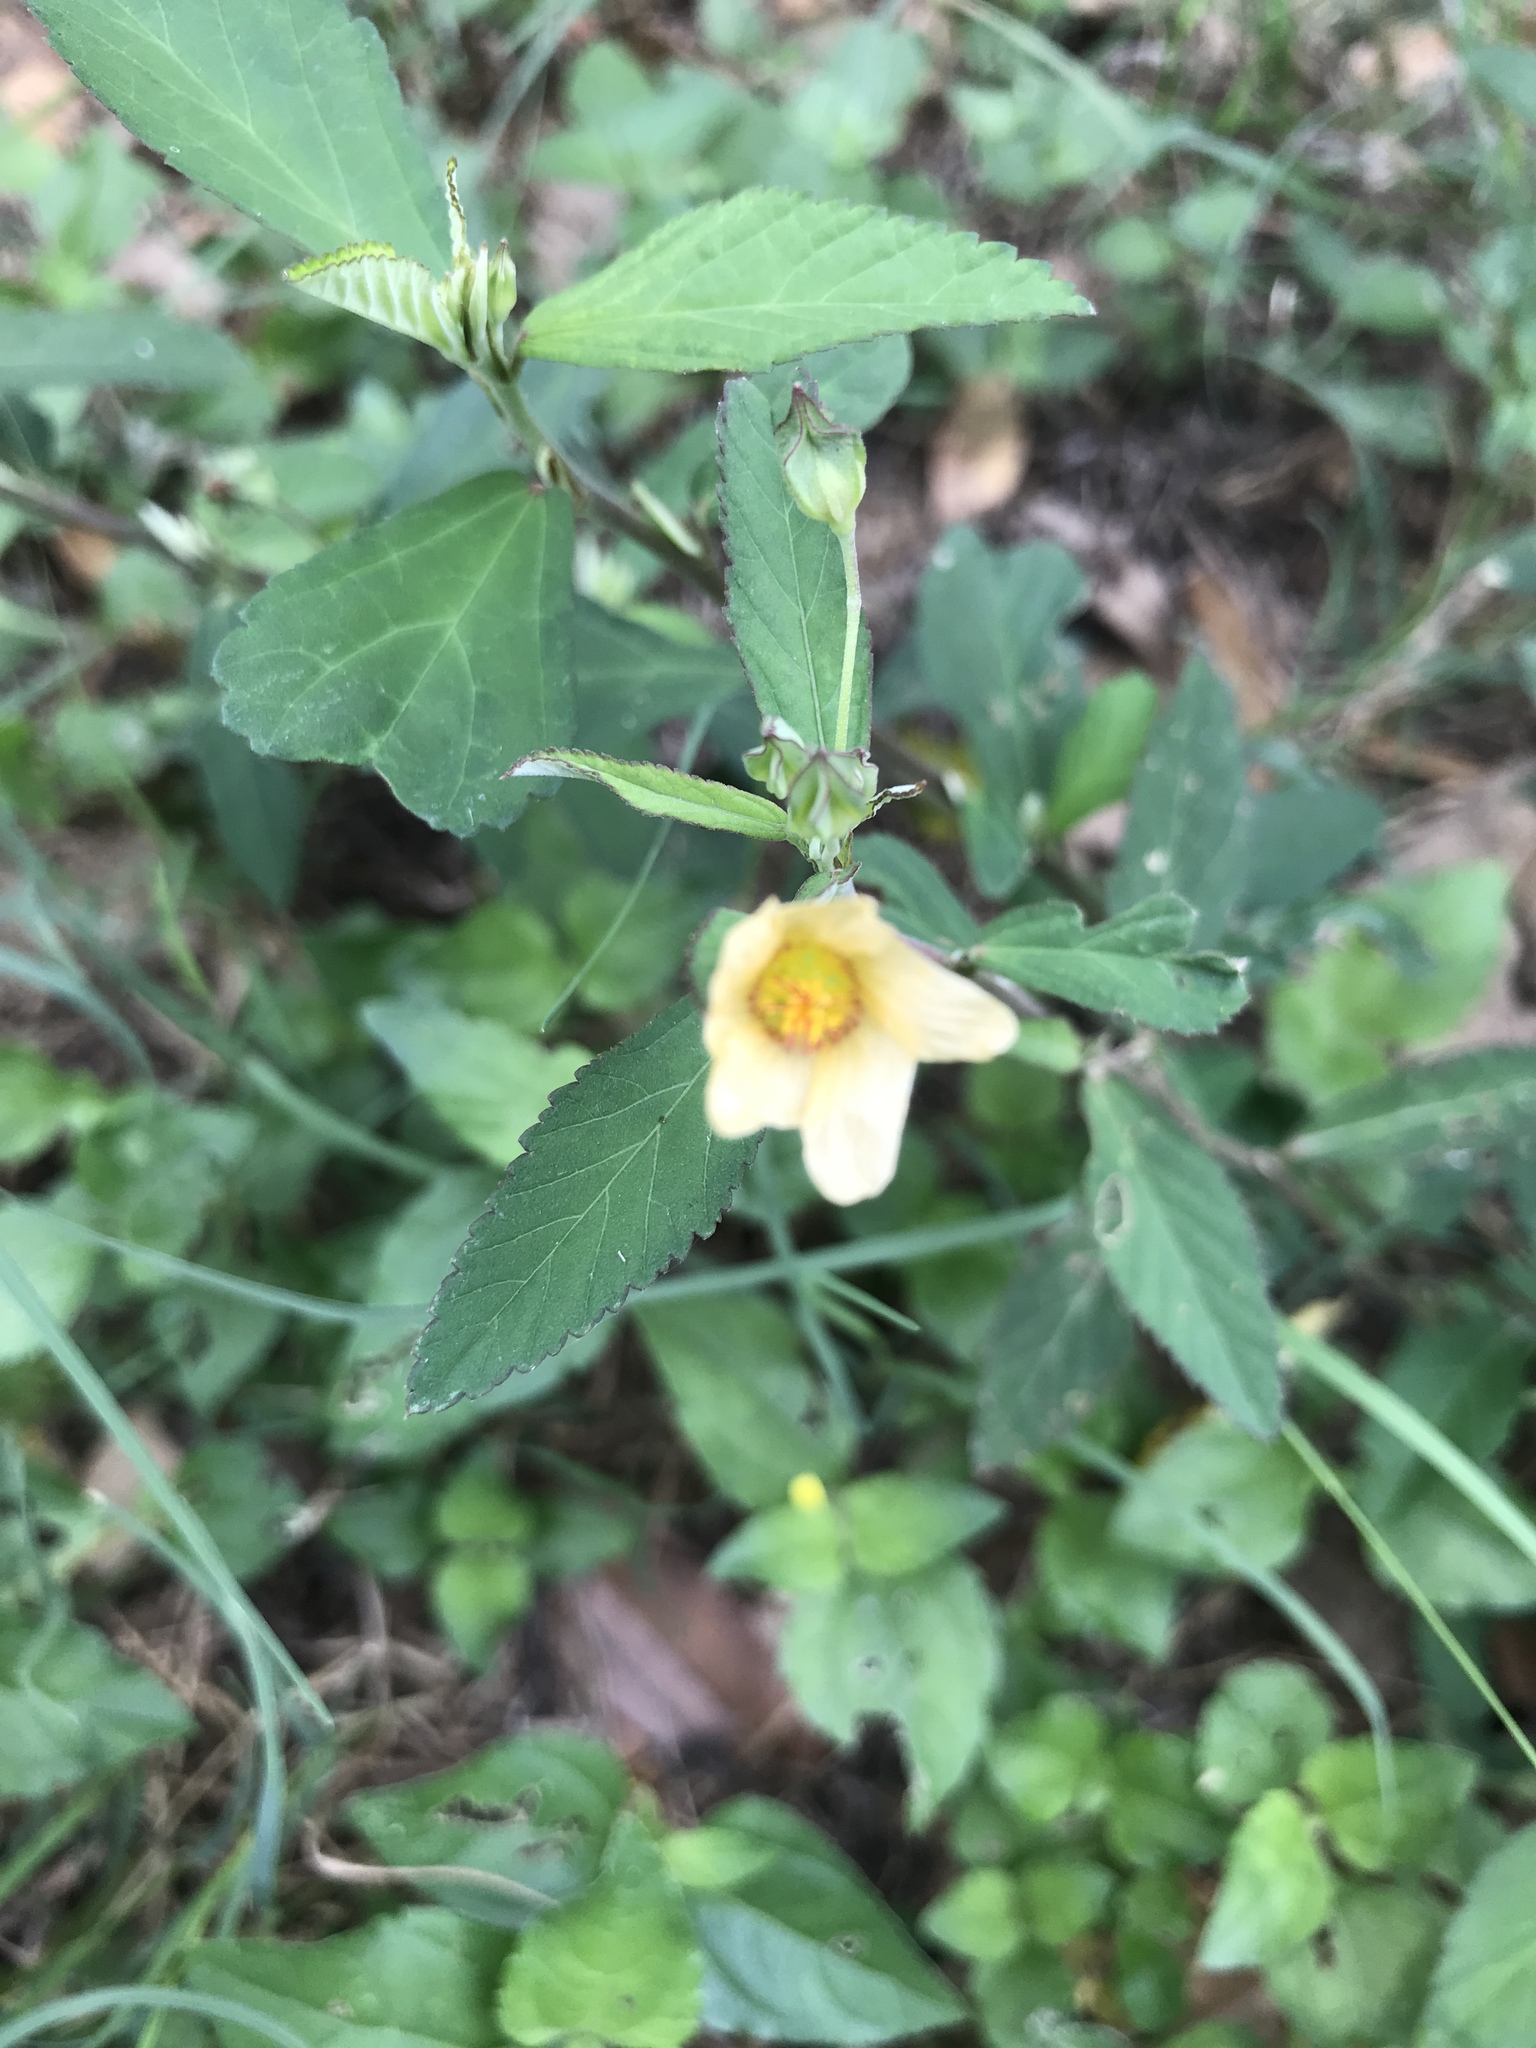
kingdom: Plantae
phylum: Tracheophyta
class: Magnoliopsida
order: Malvales
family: Malvaceae
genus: Sida
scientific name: Sida rhombifolia
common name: Queensland-hemp
